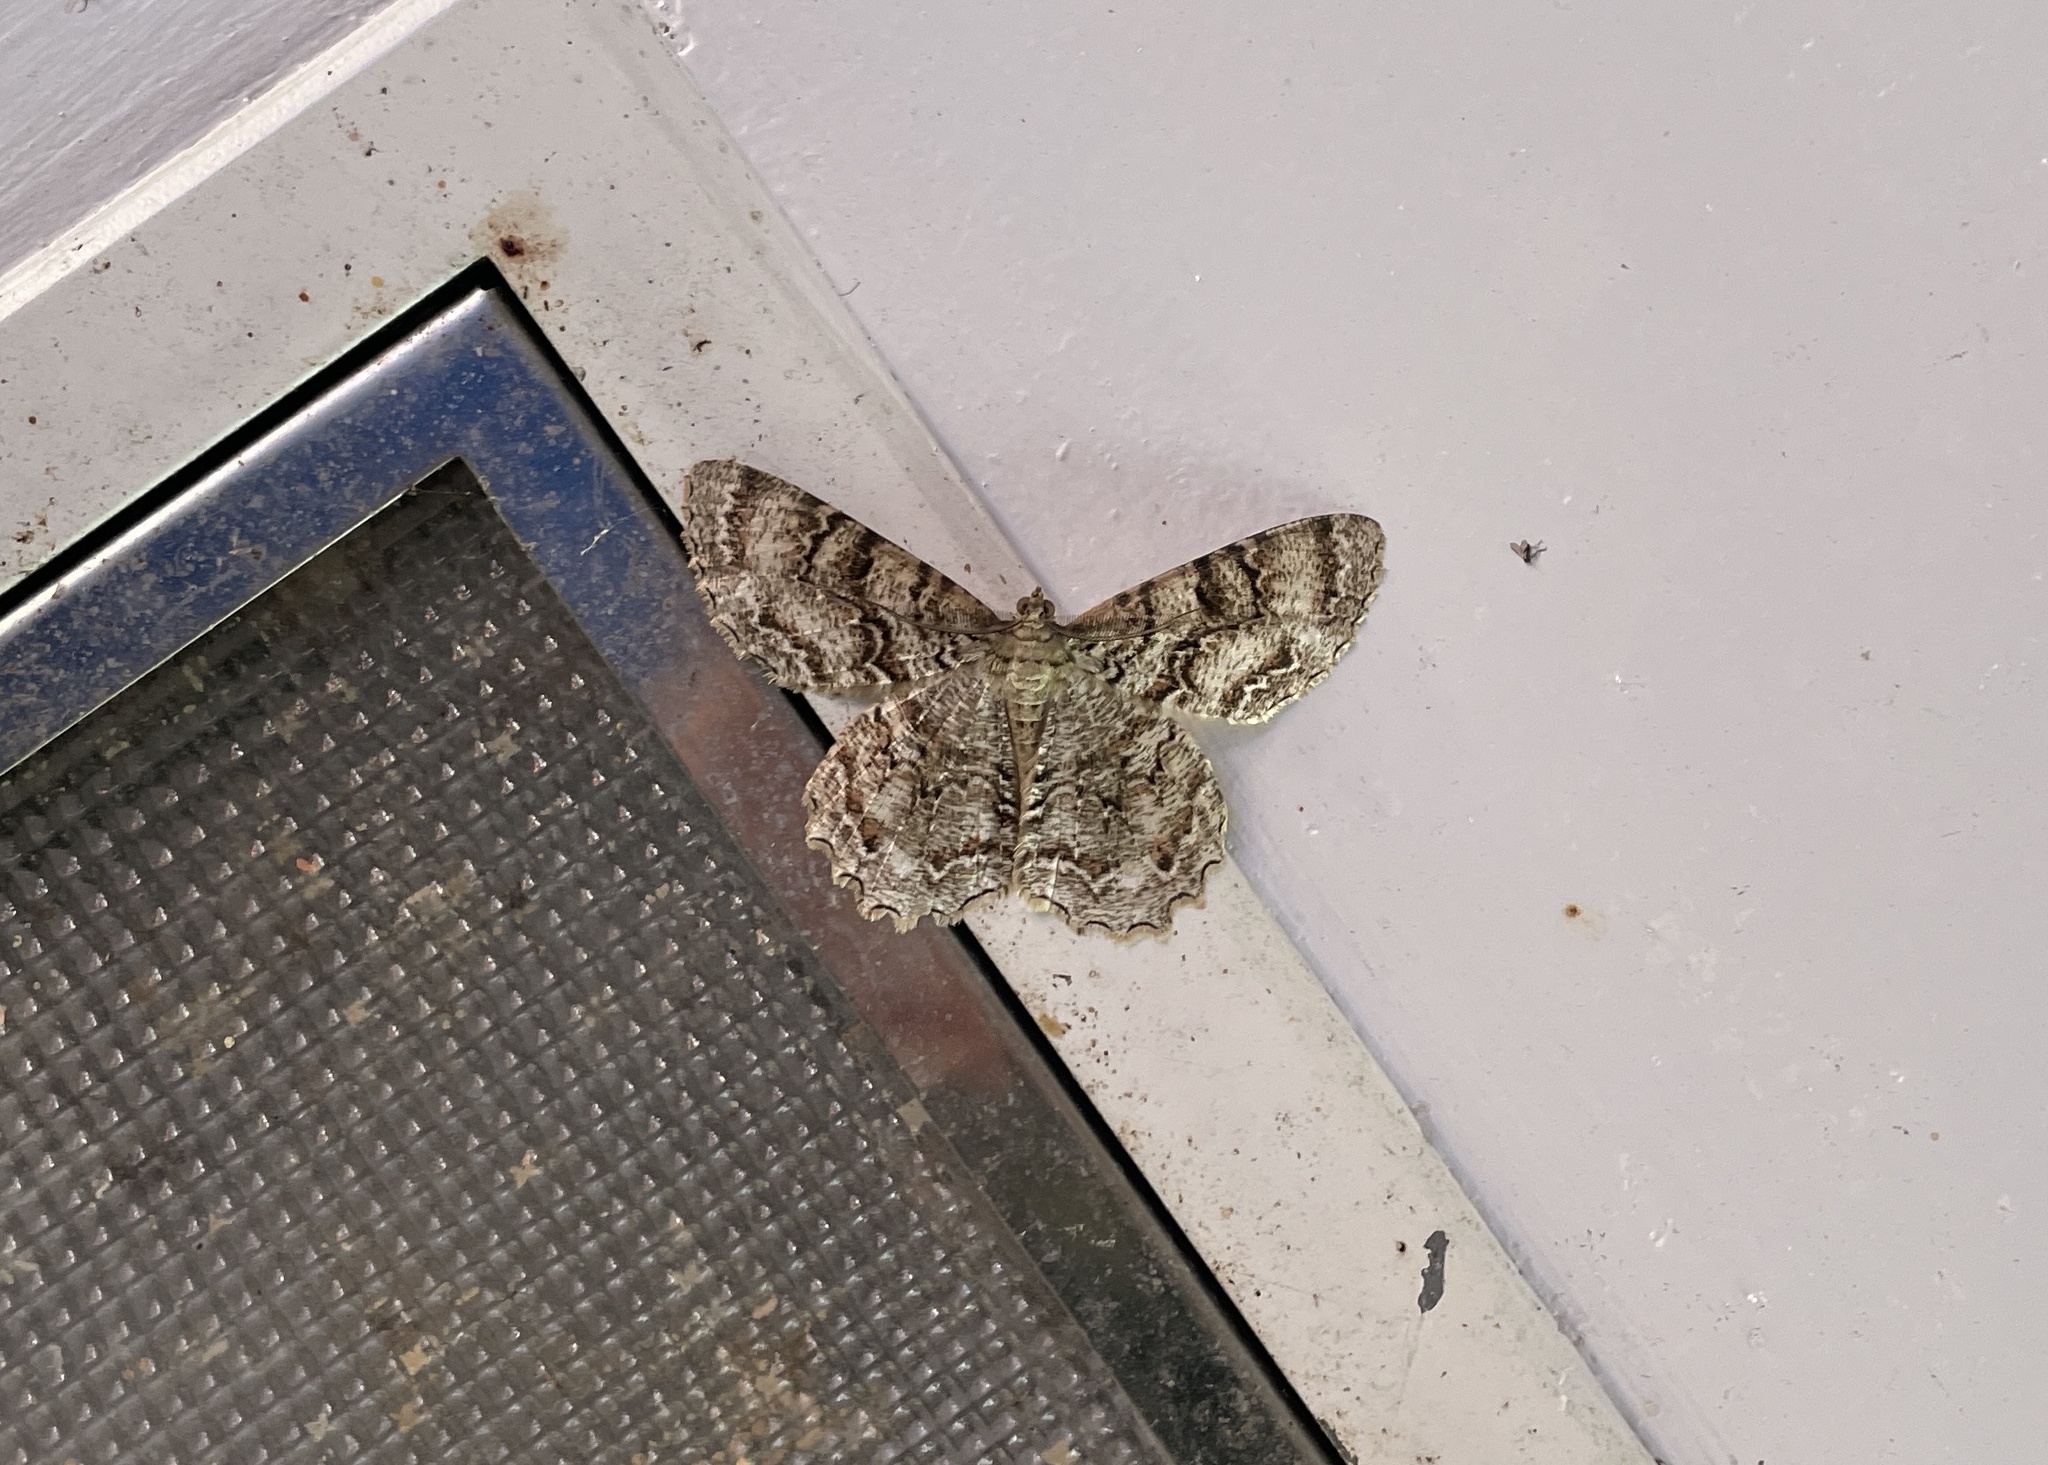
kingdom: Animalia
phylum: Arthropoda
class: Insecta
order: Lepidoptera
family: Geometridae
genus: Epimecis
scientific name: Epimecis hortaria
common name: Tulip-tree beauty
